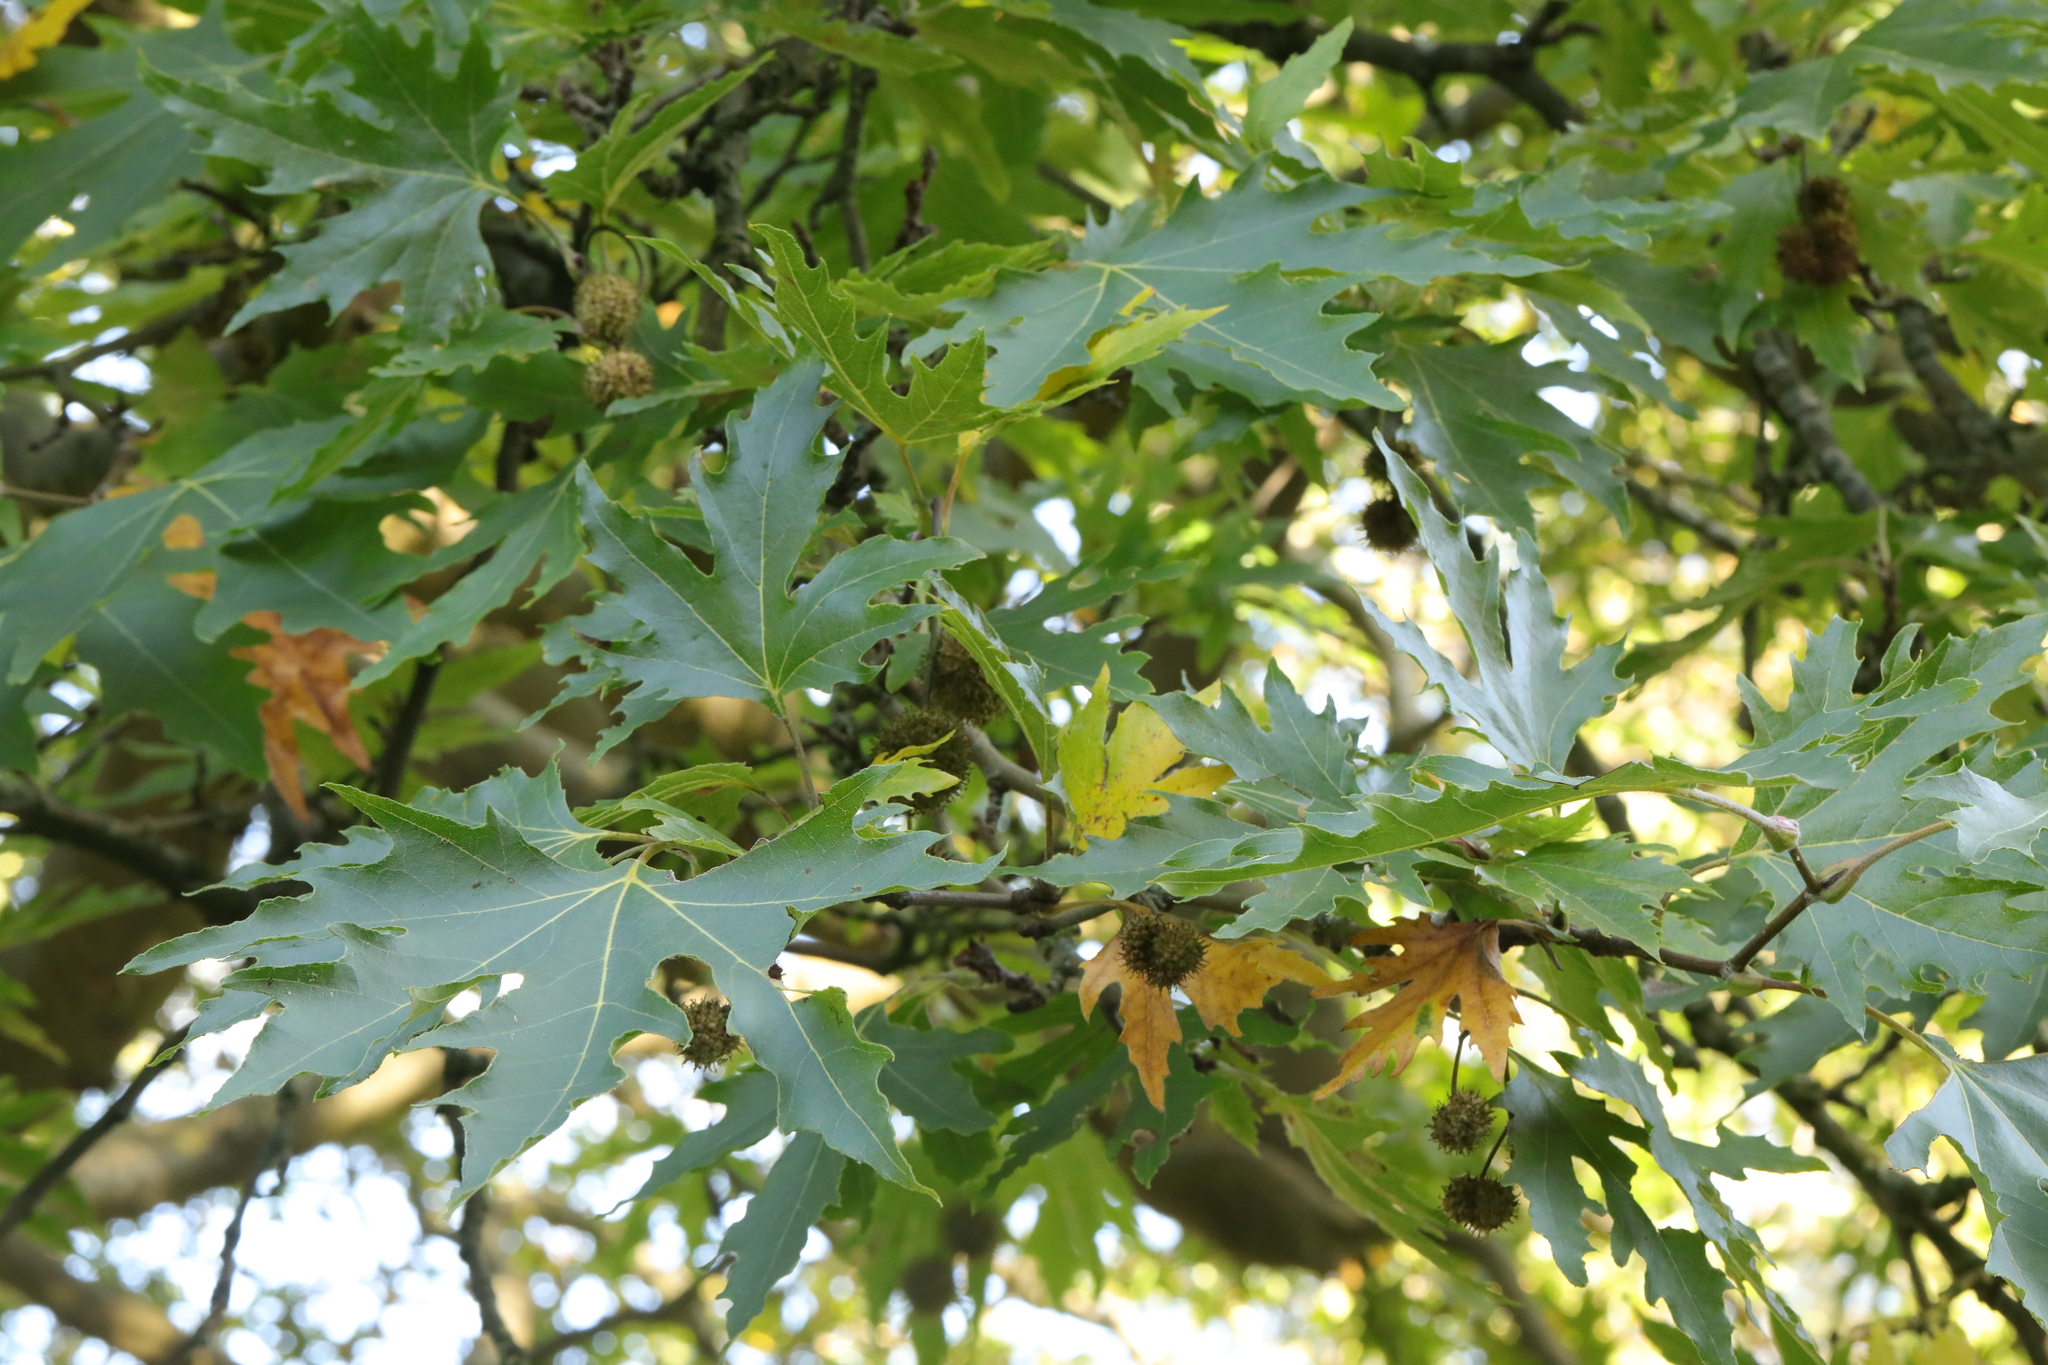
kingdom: Plantae
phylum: Tracheophyta
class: Magnoliopsida
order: Proteales
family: Platanaceae
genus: Platanus
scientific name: Platanus orientalis
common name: Oriental plane
